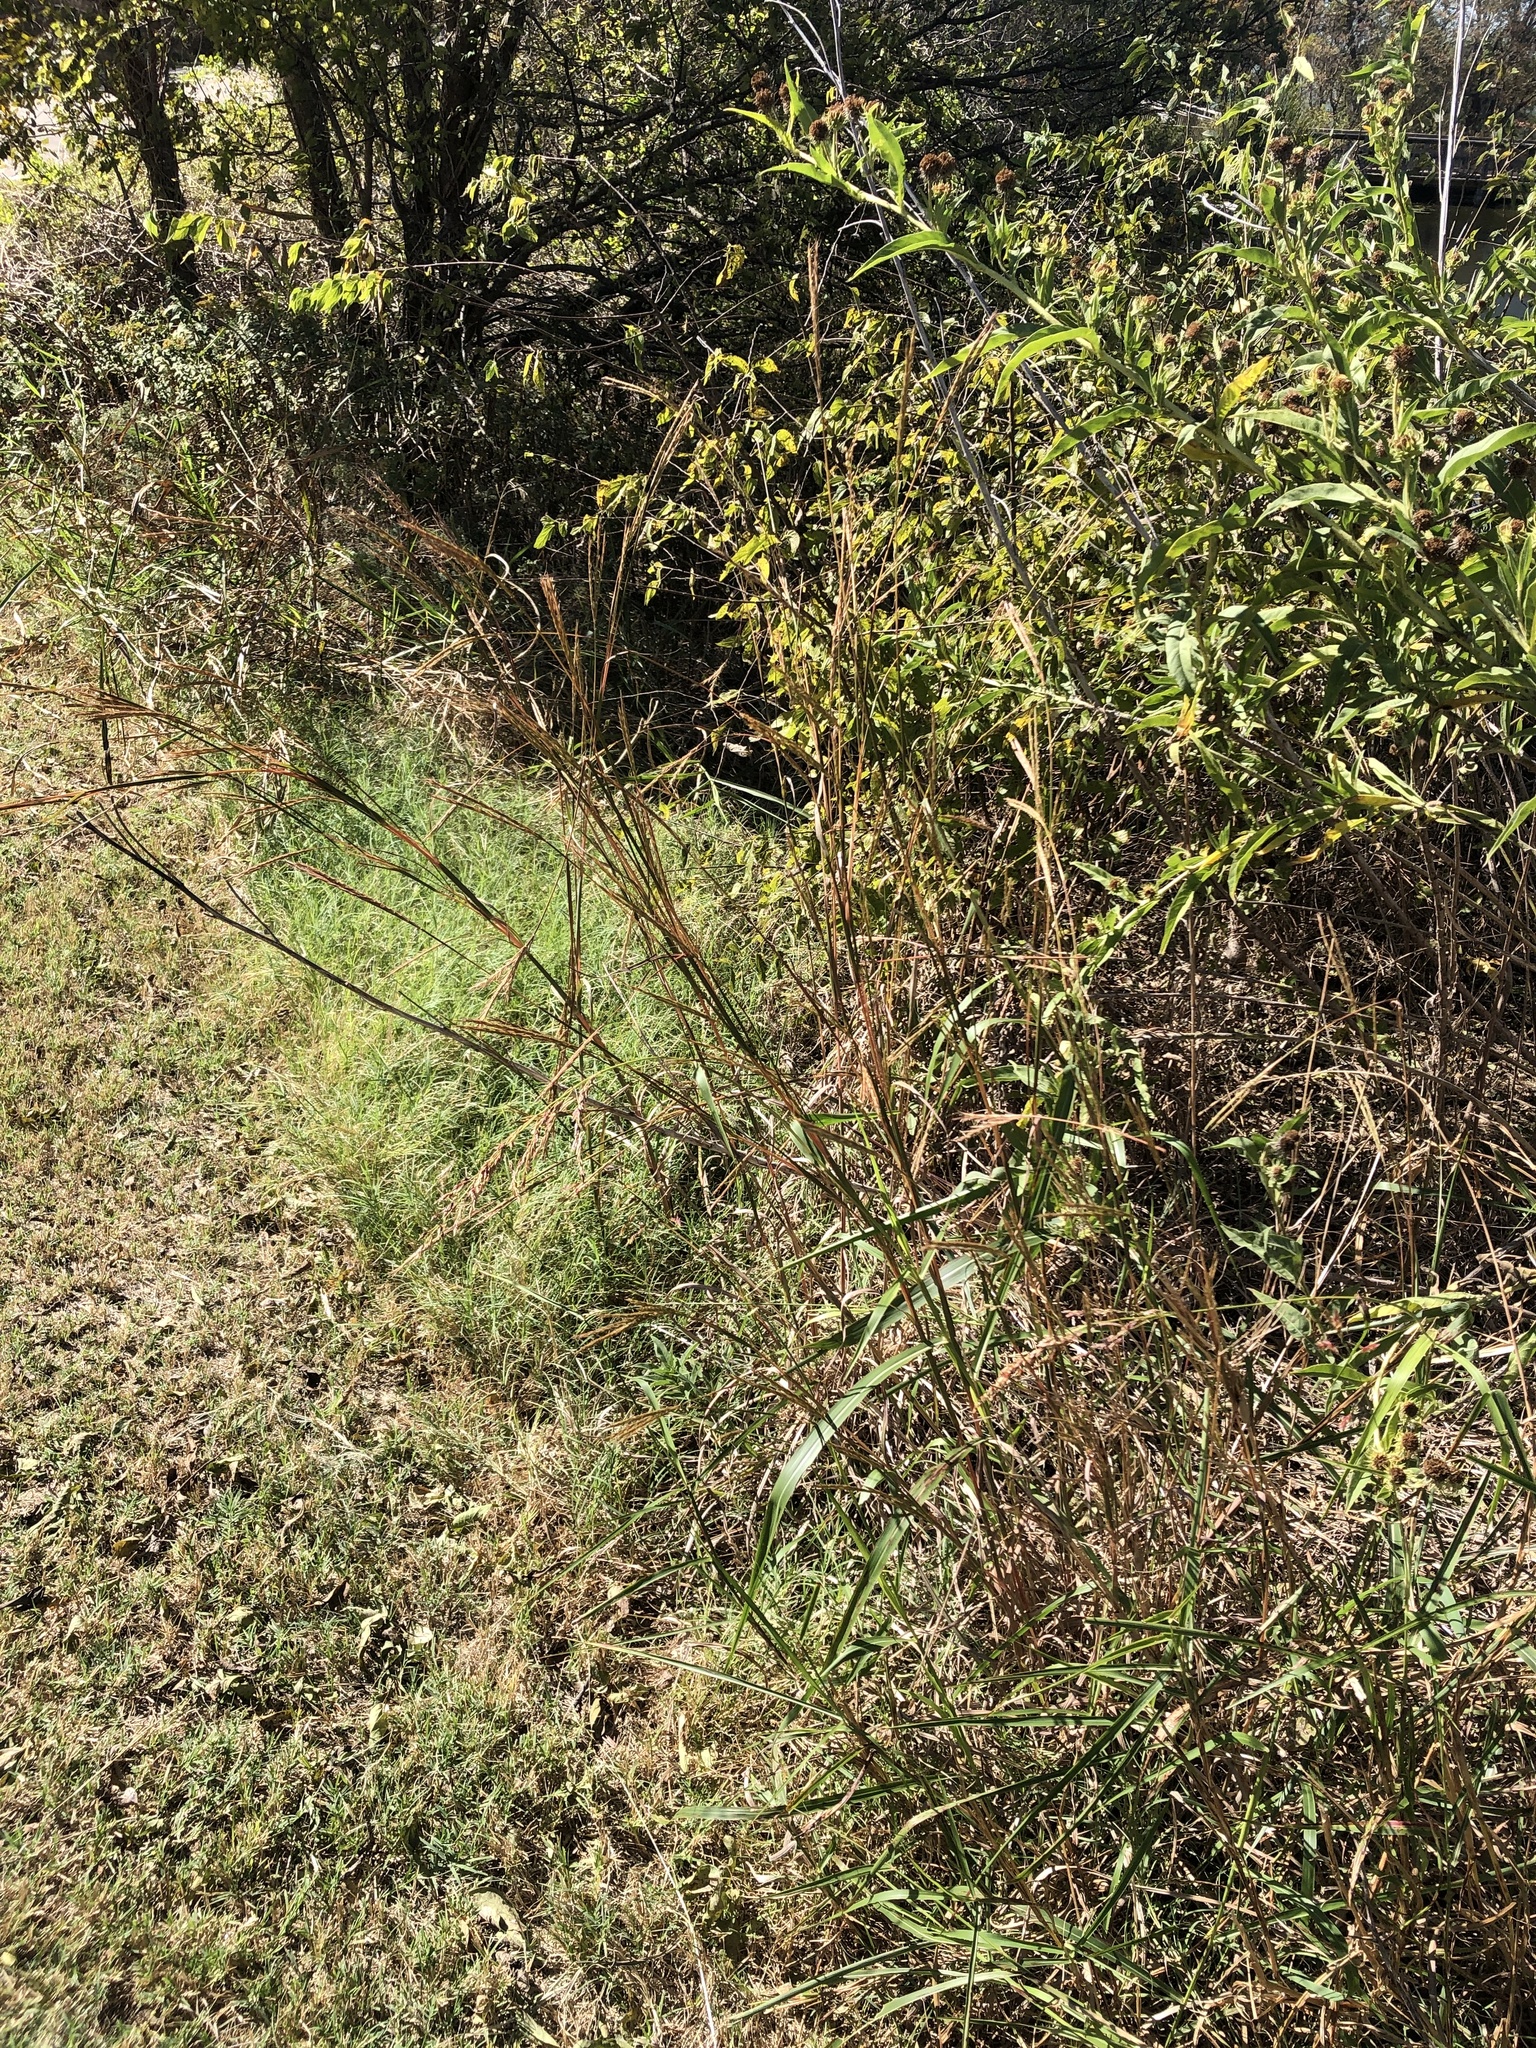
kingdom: Plantae
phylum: Tracheophyta
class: Liliopsida
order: Poales
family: Poaceae
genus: Andropogon
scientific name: Andropogon gerardi
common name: Big bluestem
